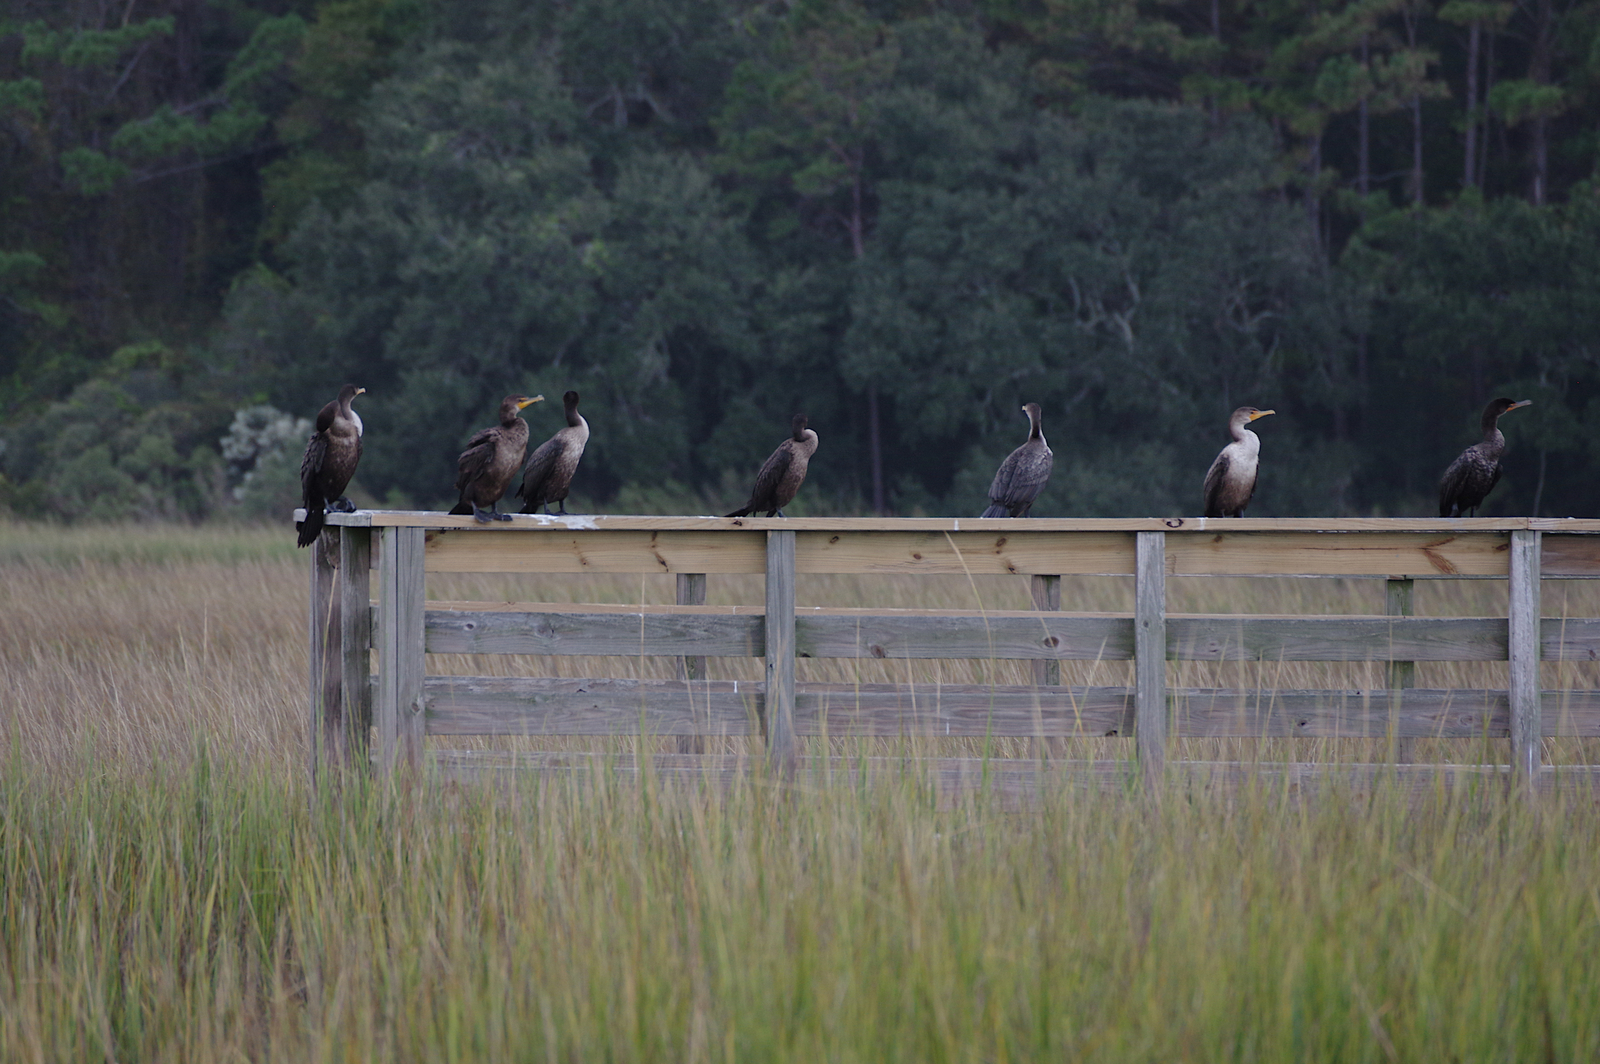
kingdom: Animalia
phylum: Chordata
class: Aves
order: Suliformes
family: Phalacrocoracidae
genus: Phalacrocorax
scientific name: Phalacrocorax auritus
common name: Double-crested cormorant
